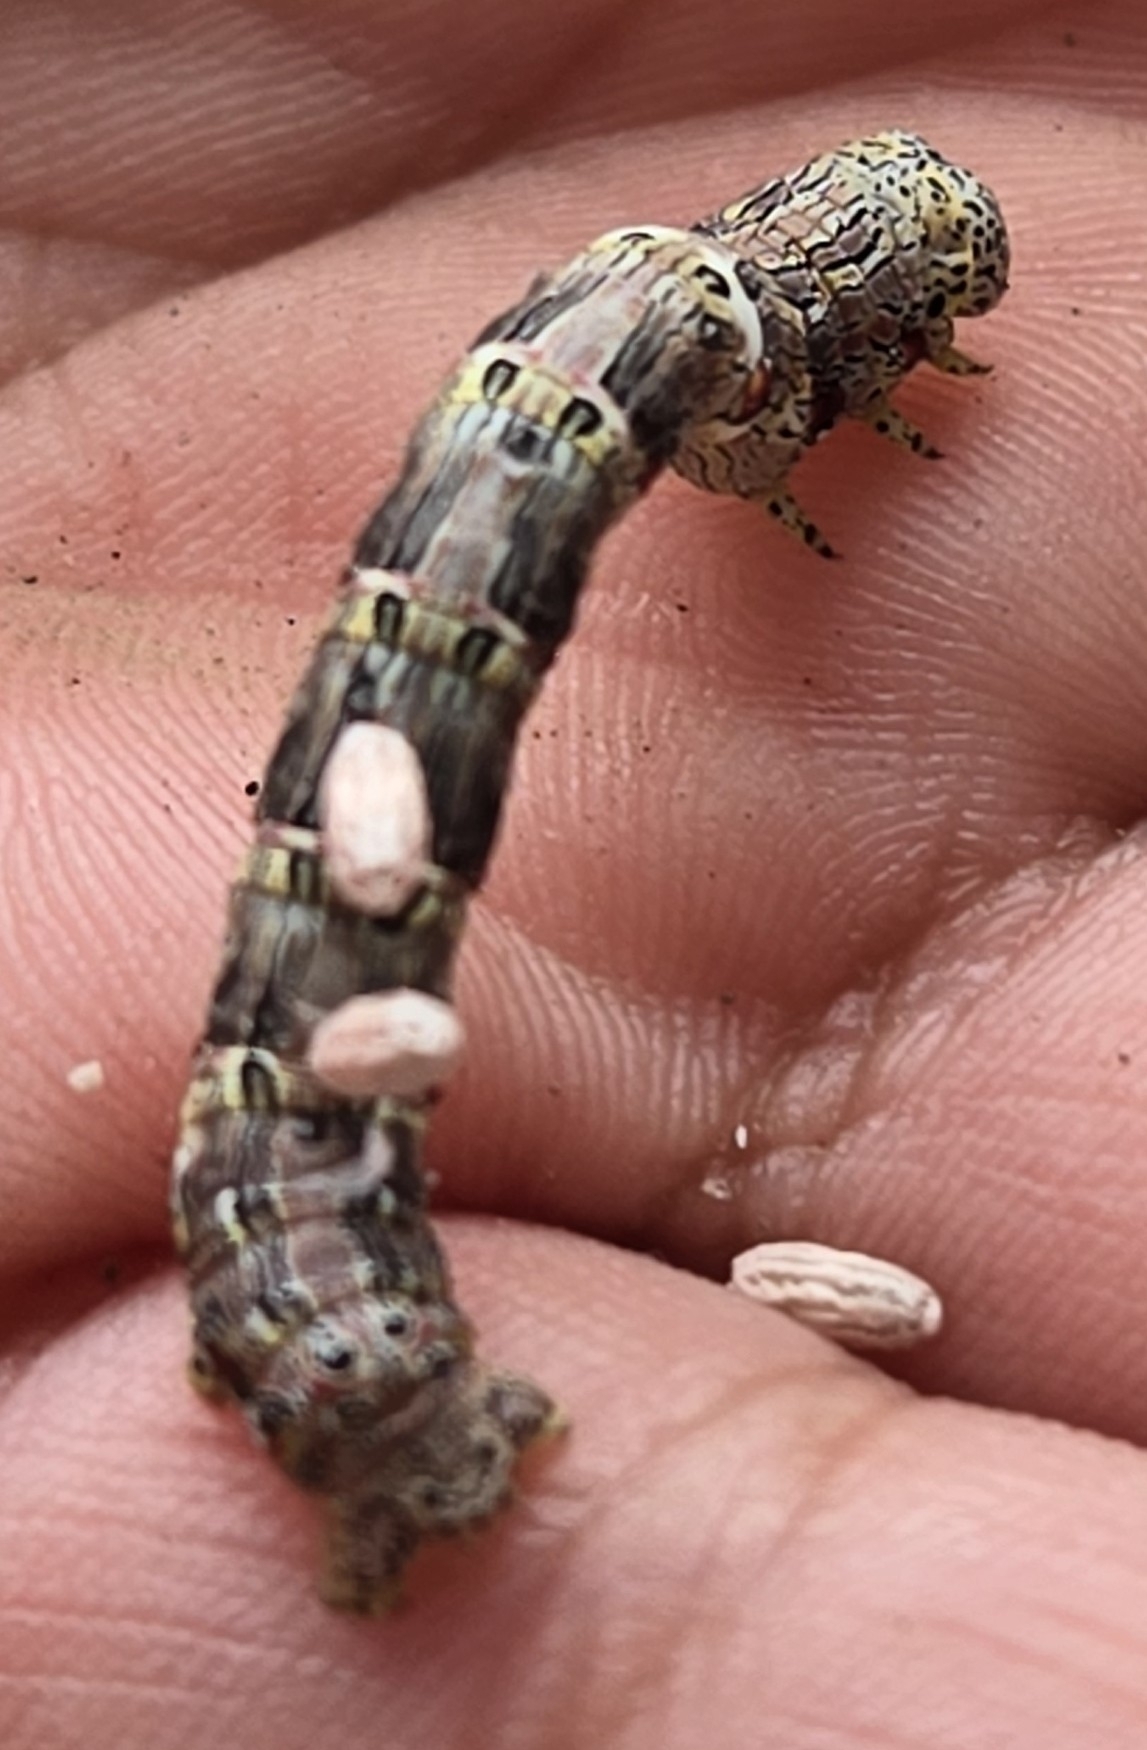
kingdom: Animalia
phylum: Arthropoda
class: Insecta
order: Lepidoptera
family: Geometridae
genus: Lycia
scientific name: Lycia ypsilon
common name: Wooly gray
